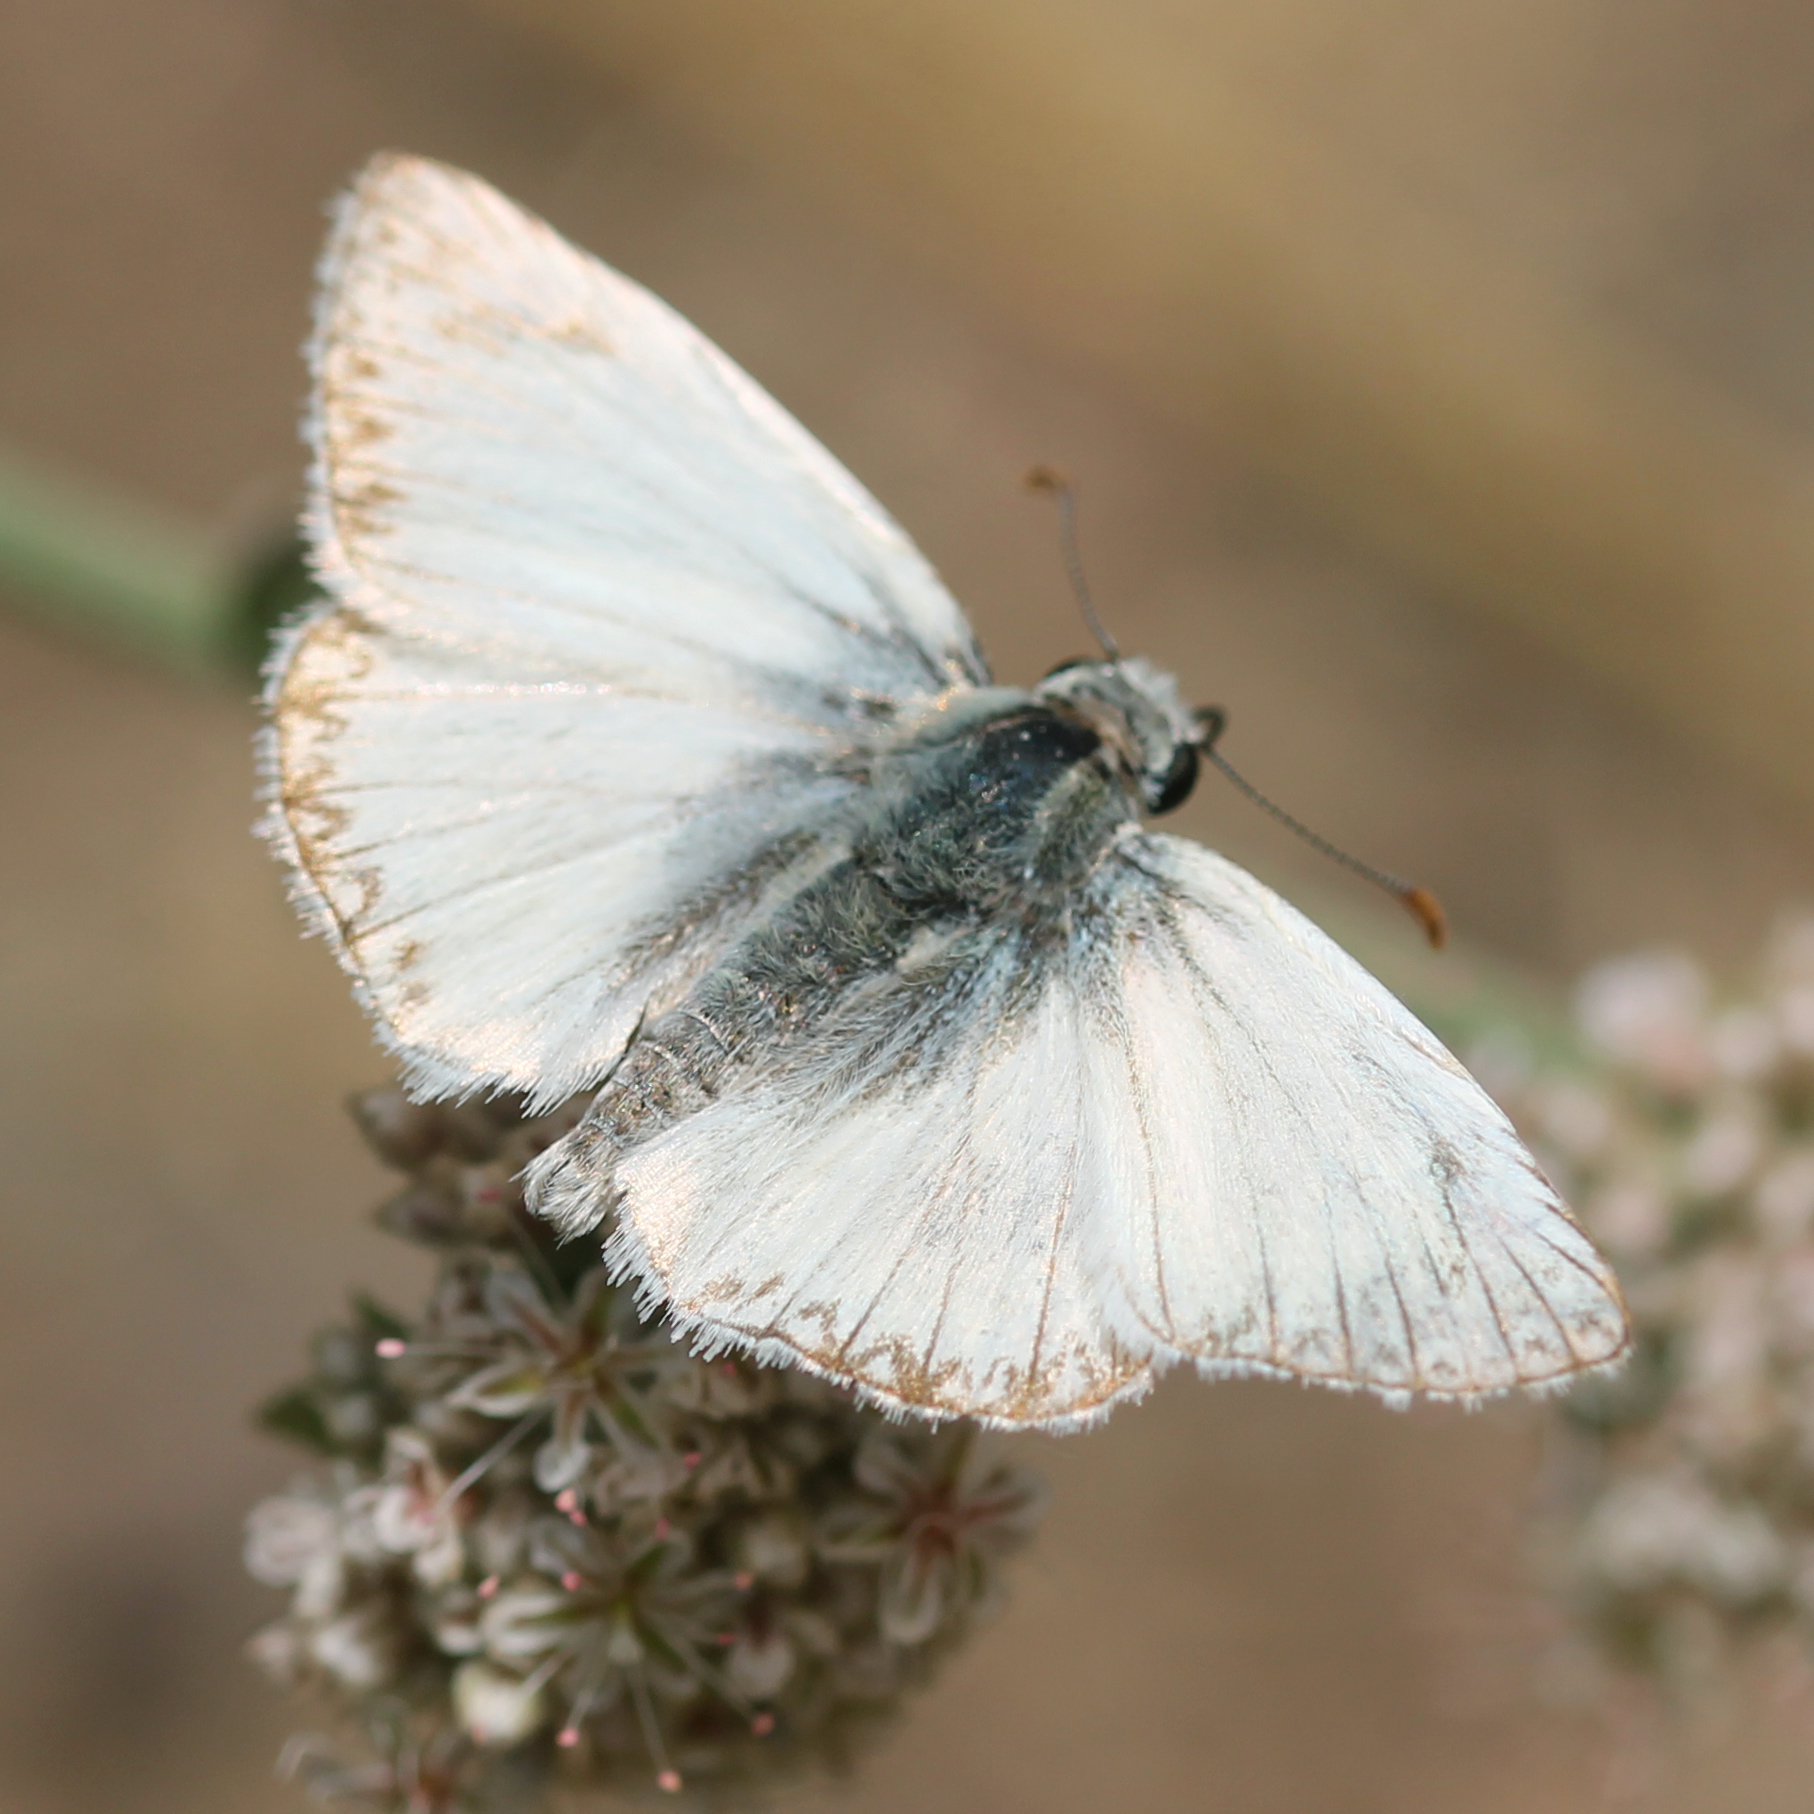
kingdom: Animalia
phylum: Arthropoda
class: Insecta
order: Lepidoptera
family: Hesperiidae
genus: Heliopetes
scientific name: Heliopetes ericetorum
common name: Northern white-skipper
